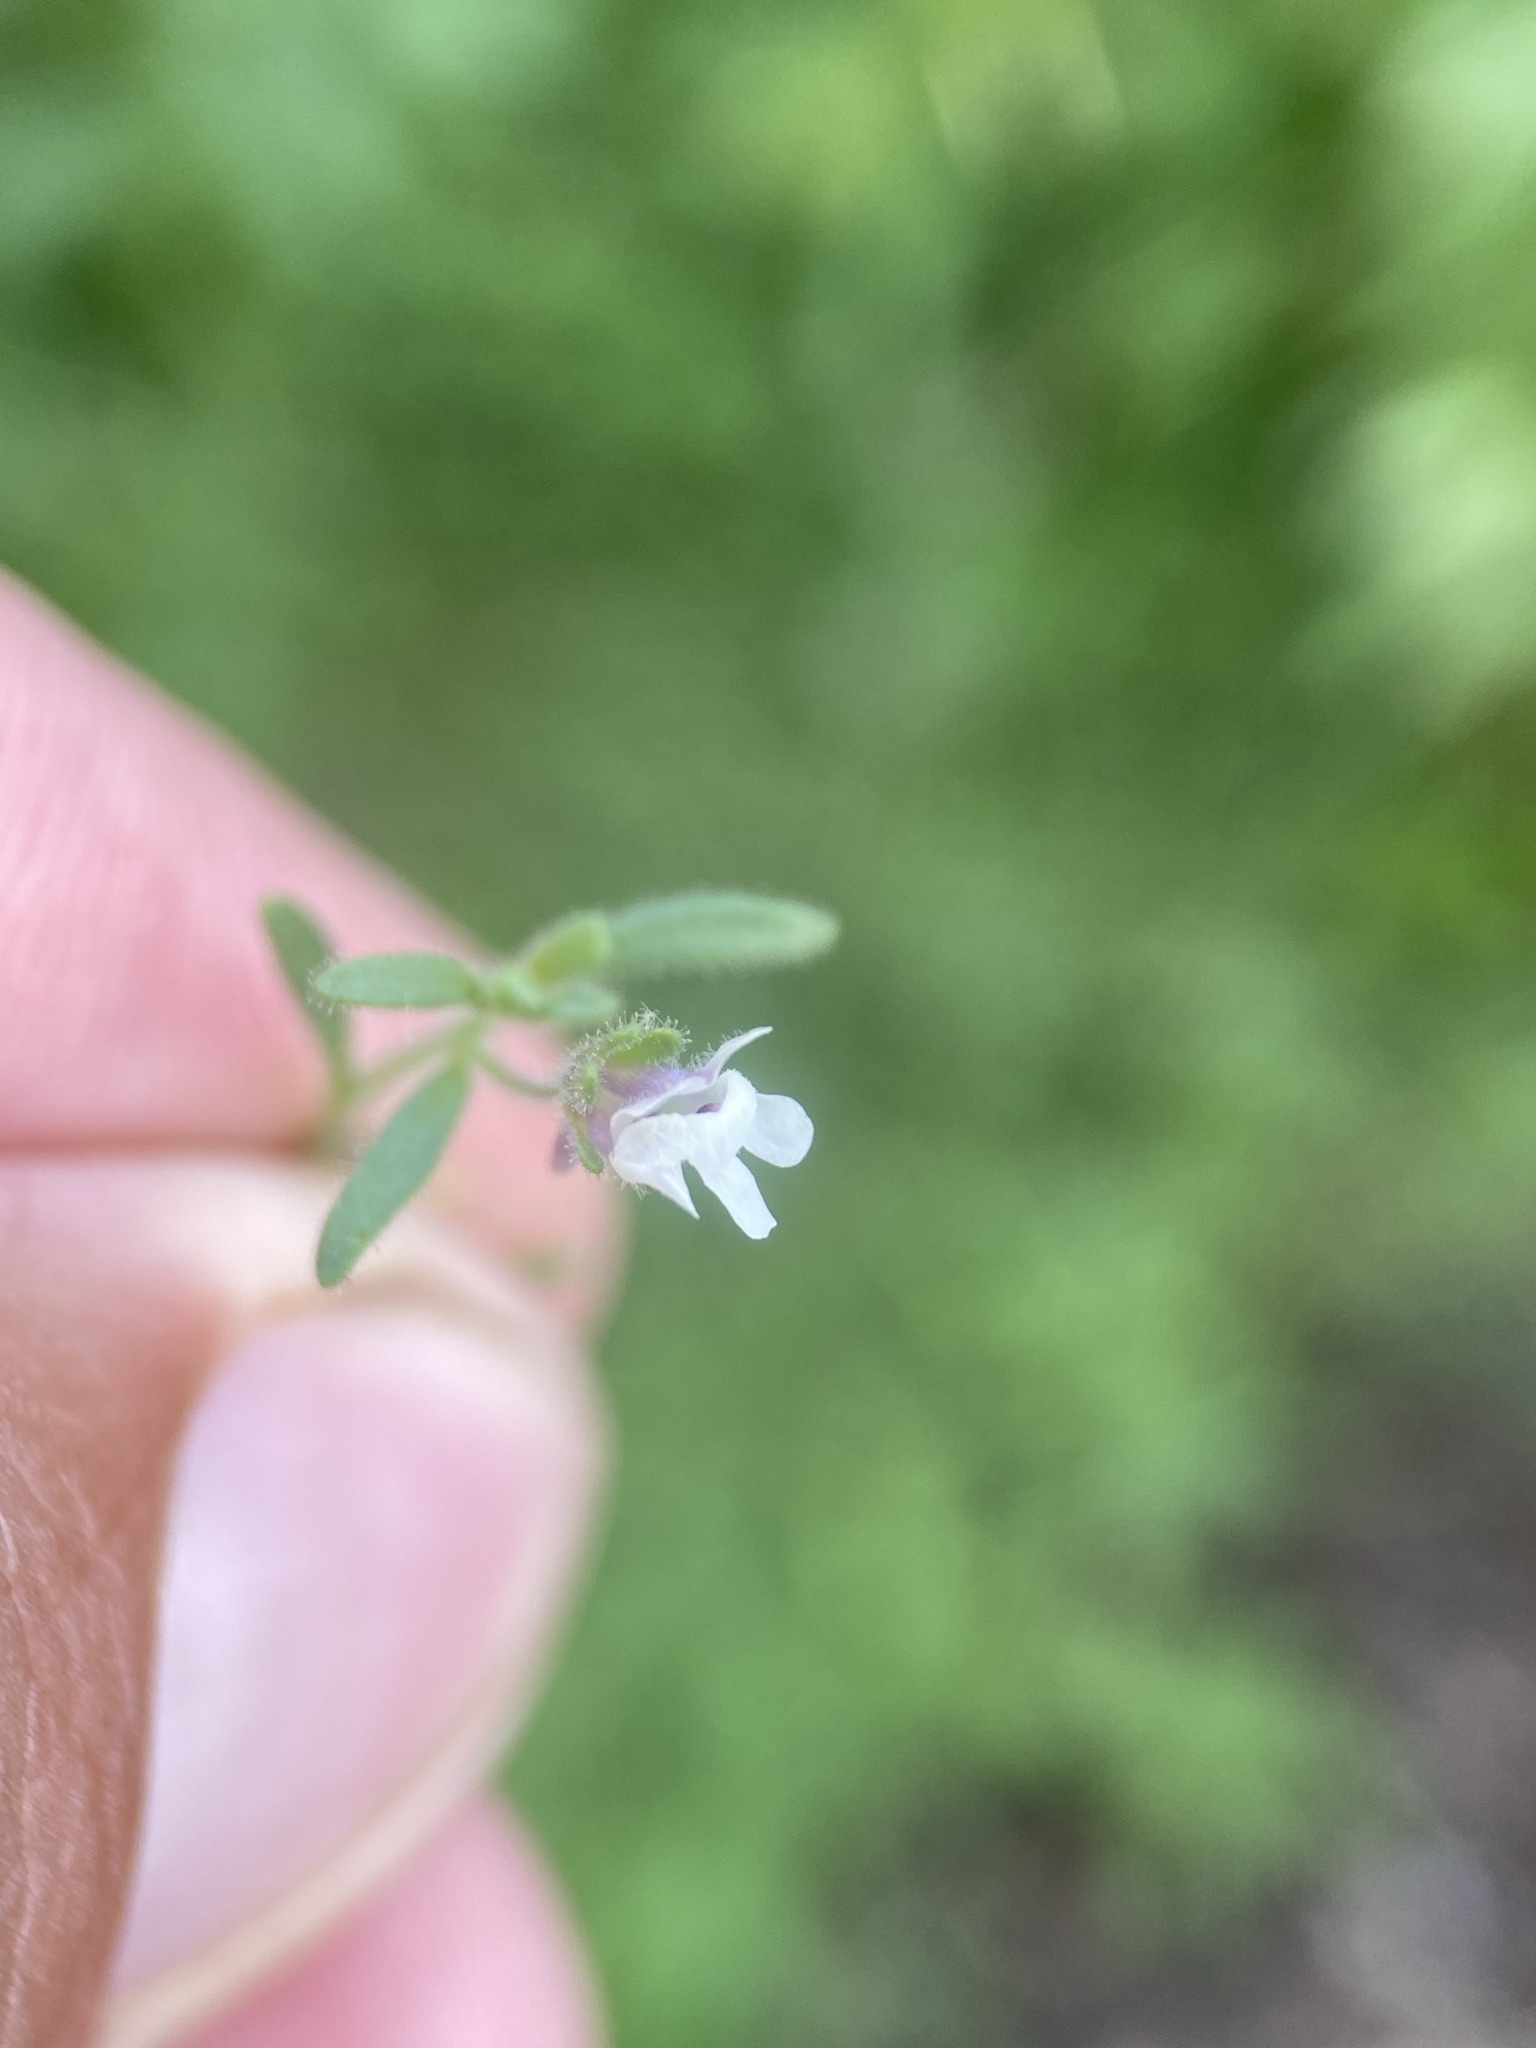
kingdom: Plantae
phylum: Tracheophyta
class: Magnoliopsida
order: Lamiales
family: Plantaginaceae
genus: Chaenorhinum
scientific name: Chaenorhinum minus
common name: Dwarf snapdragon
